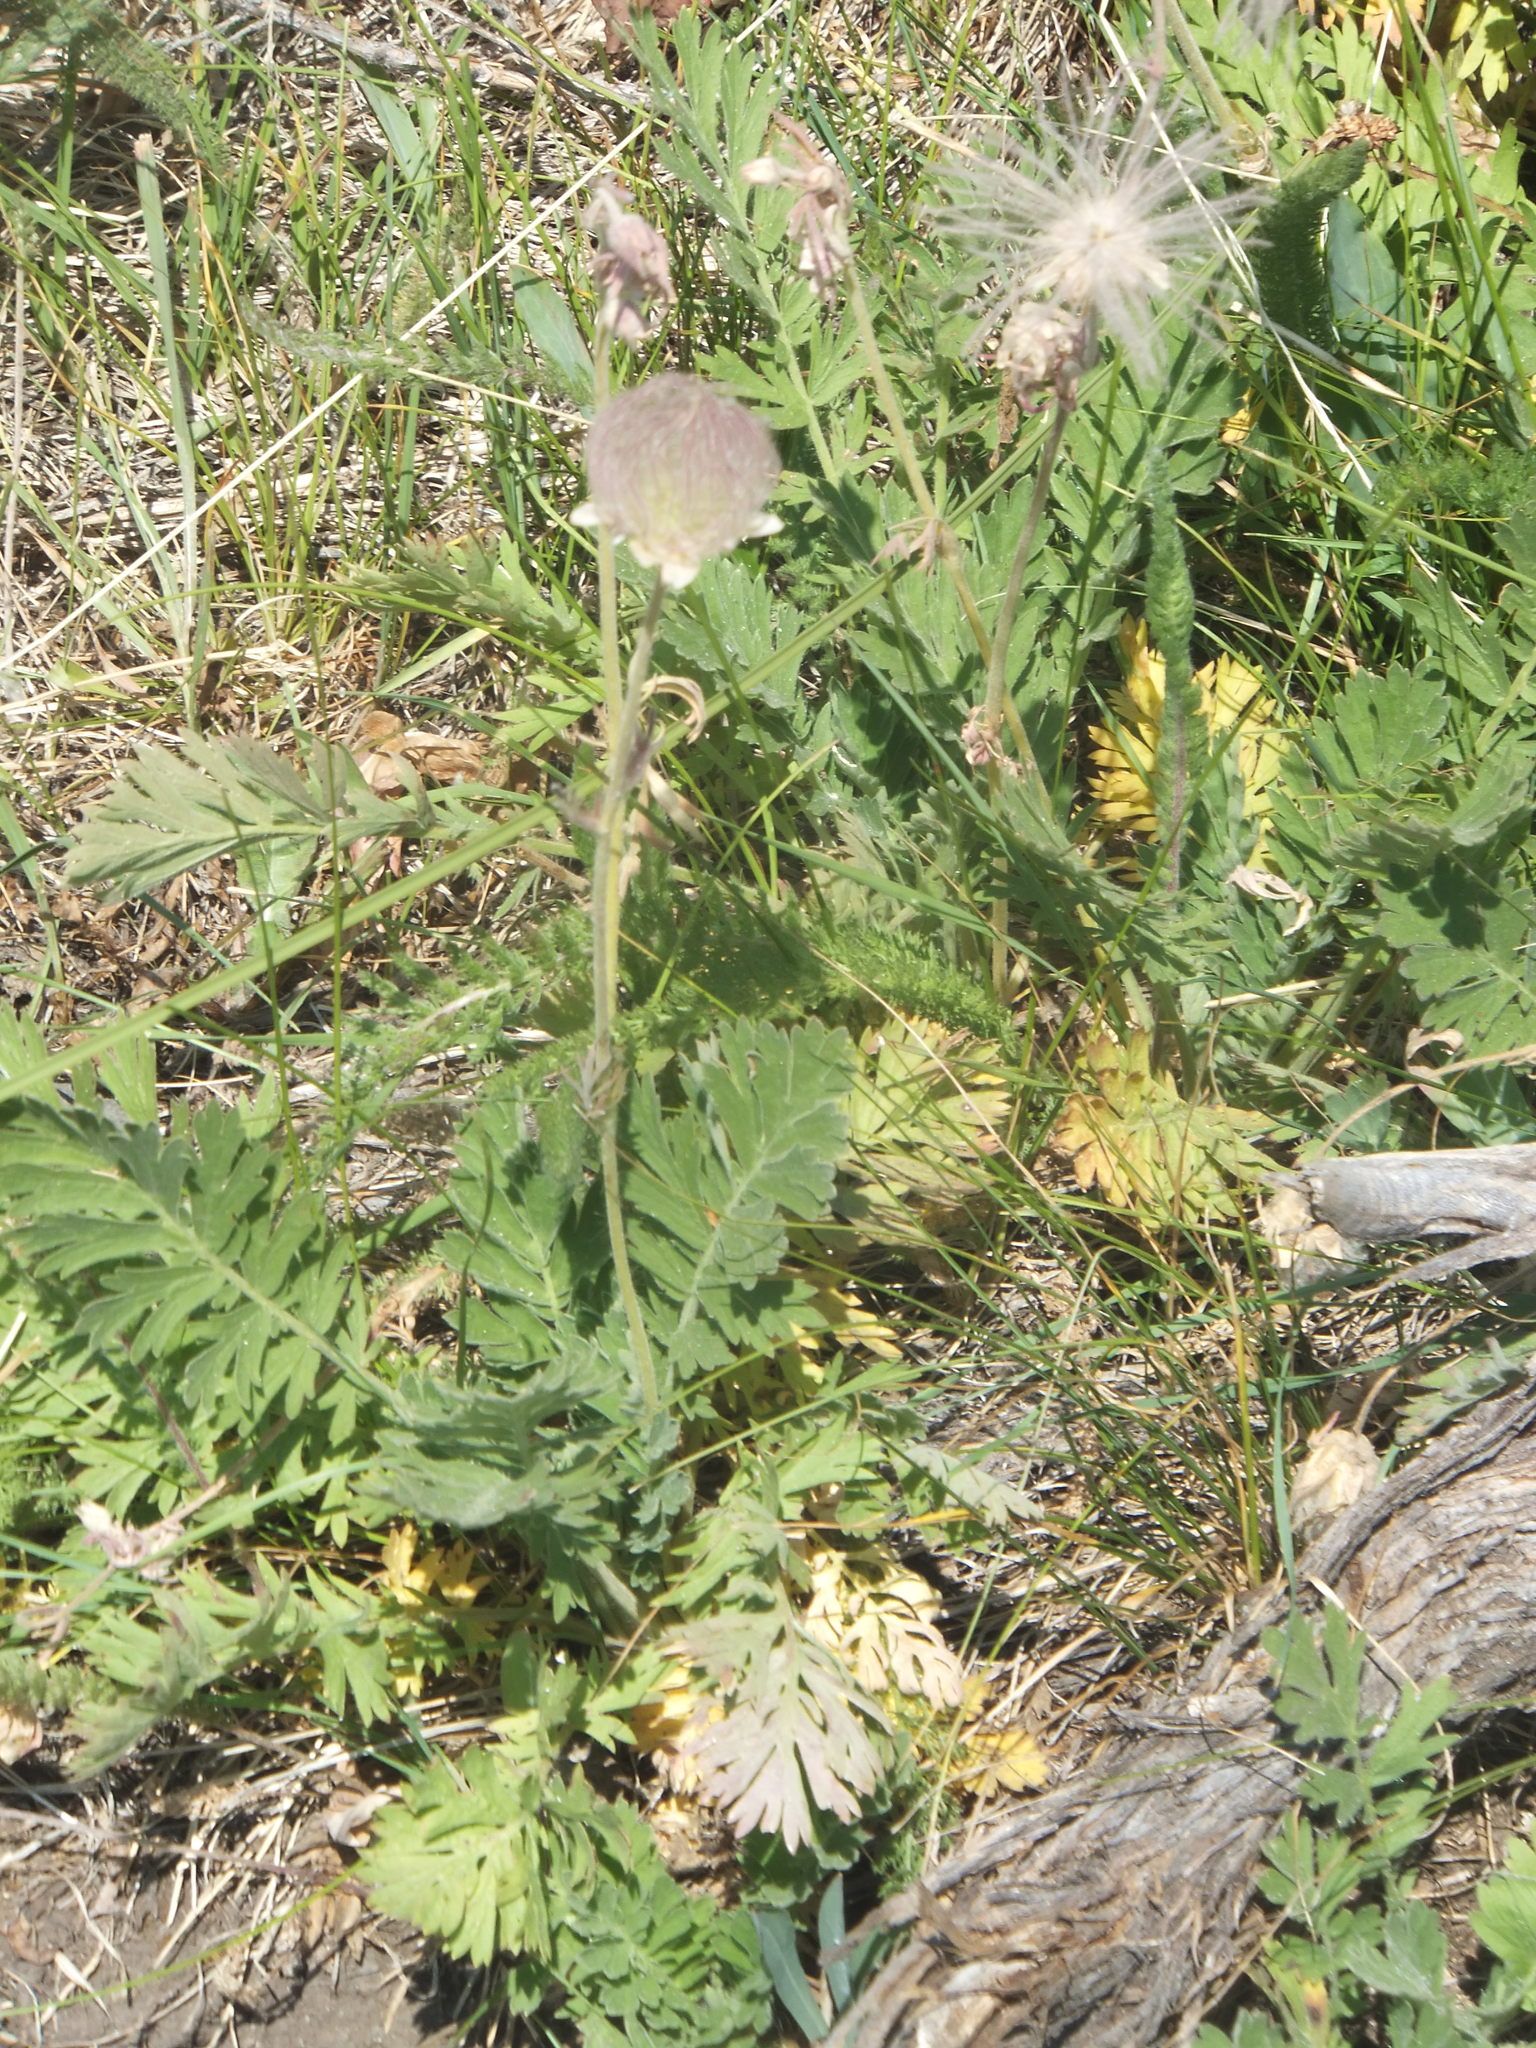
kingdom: Plantae
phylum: Tracheophyta
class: Magnoliopsida
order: Rosales
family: Rosaceae
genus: Geum
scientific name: Geum triflorum
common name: Old man's whiskers
